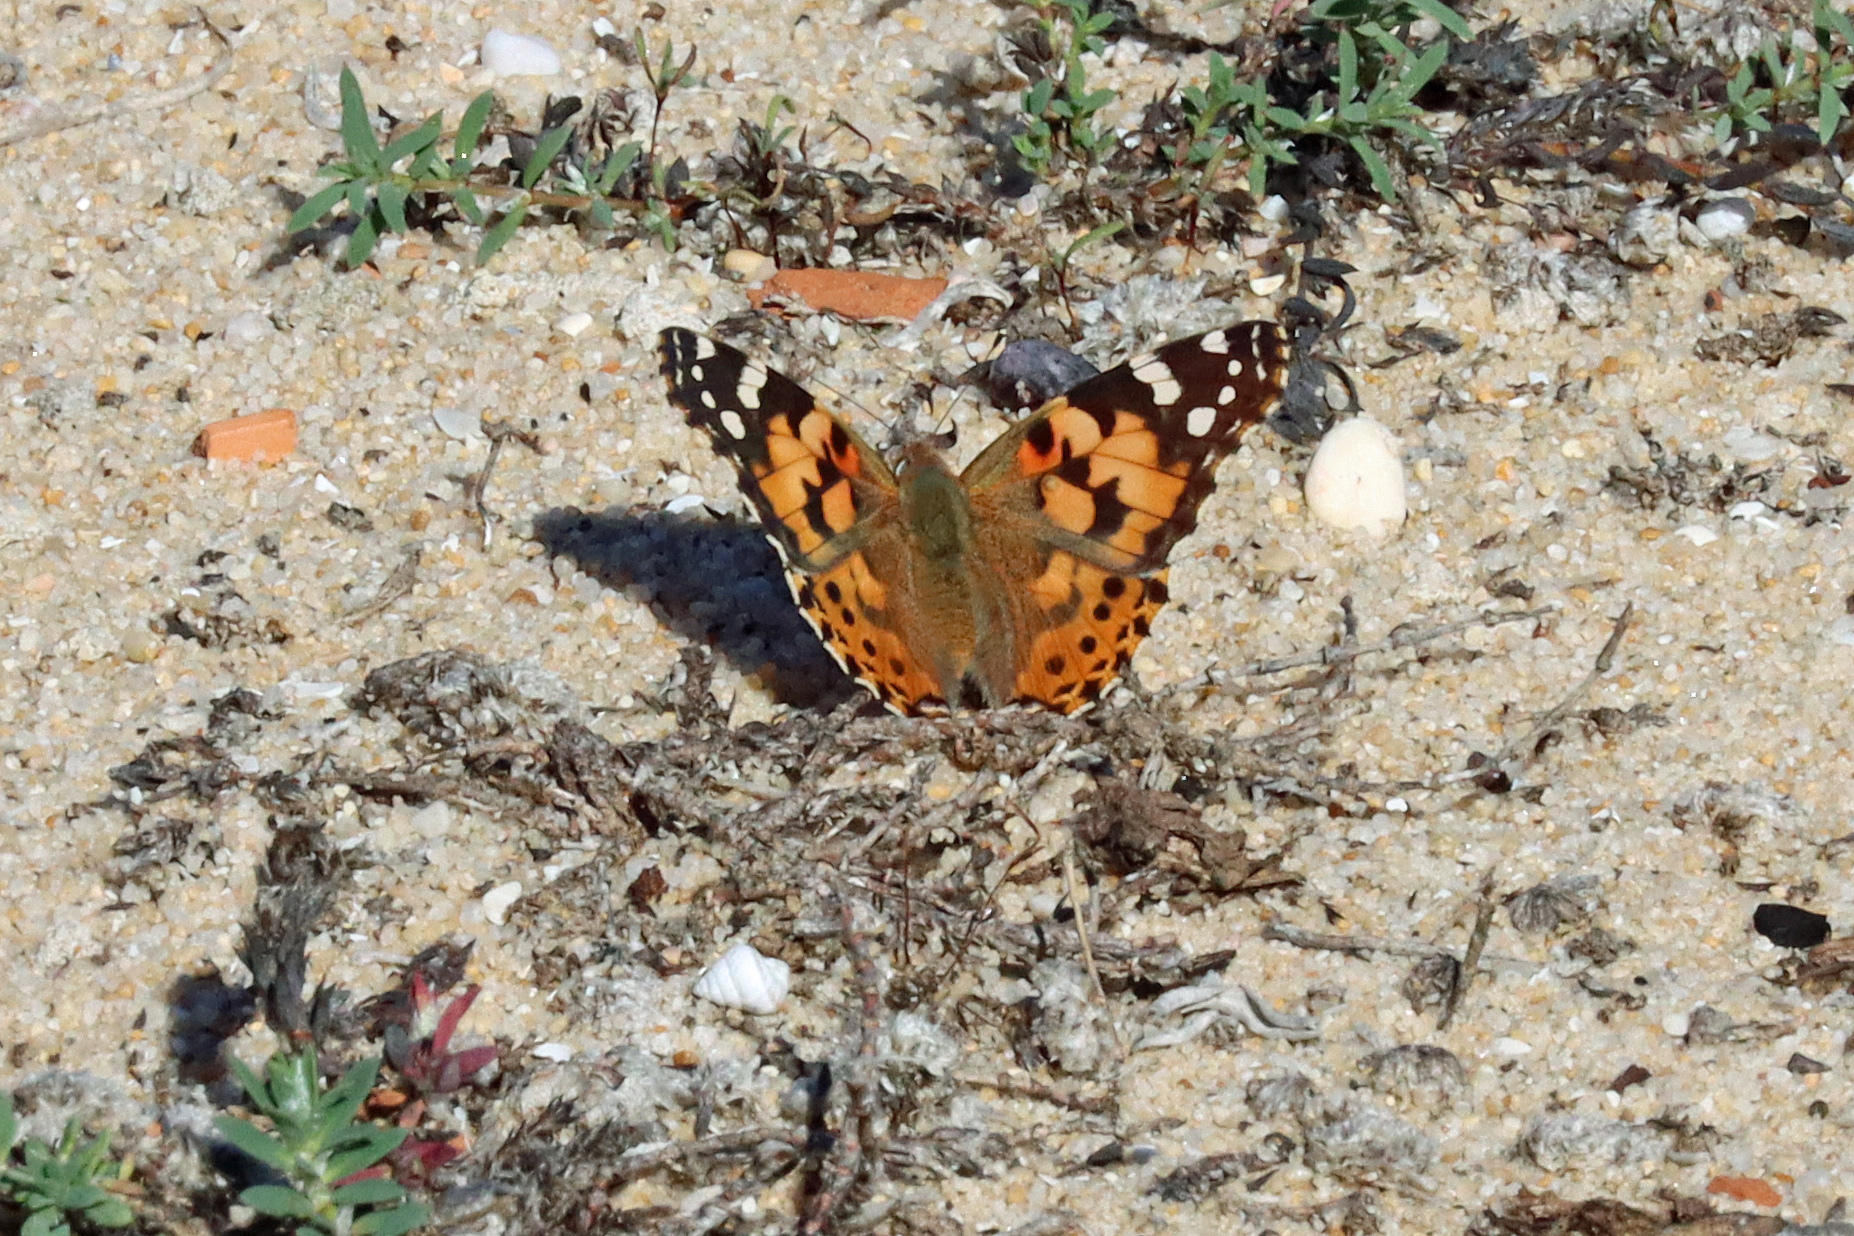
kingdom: Animalia
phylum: Arthropoda
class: Insecta
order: Lepidoptera
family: Nymphalidae
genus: Vanessa
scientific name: Vanessa cardui
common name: Painted lady
